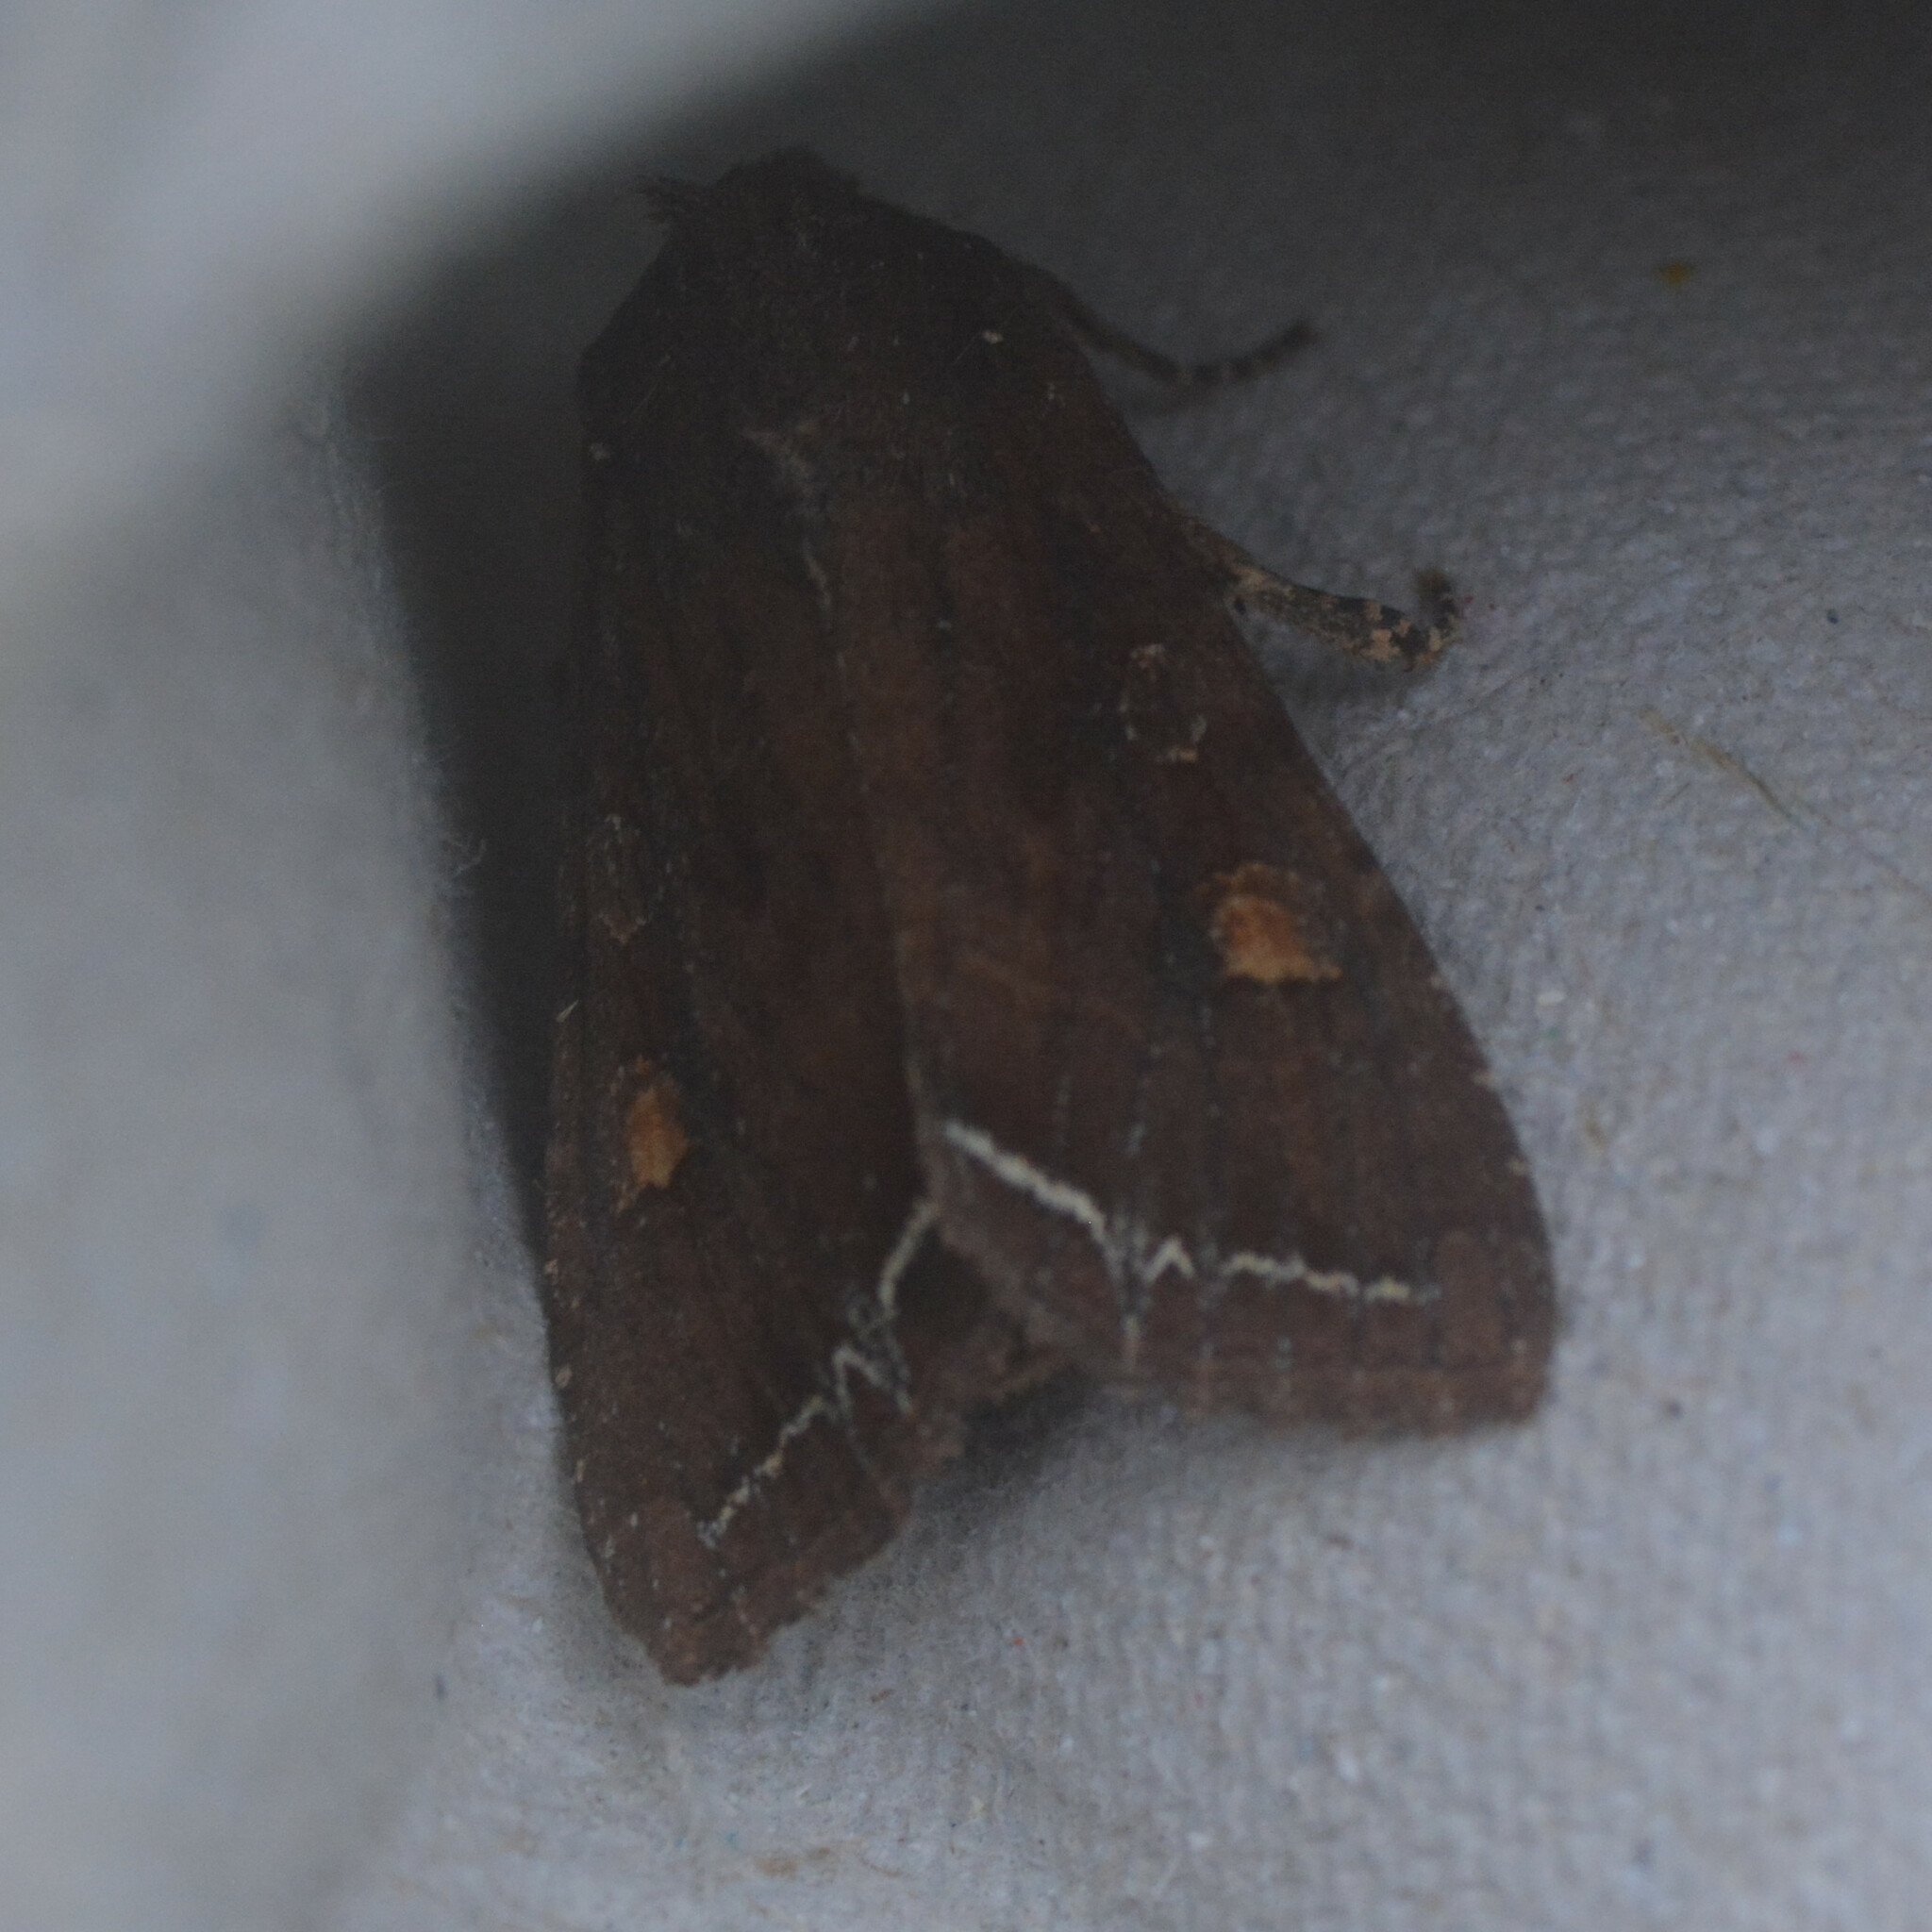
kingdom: Animalia
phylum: Arthropoda
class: Insecta
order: Lepidoptera
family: Noctuidae
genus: Lacanobia
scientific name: Lacanobia oleracea
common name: Bright-line brown-eye
